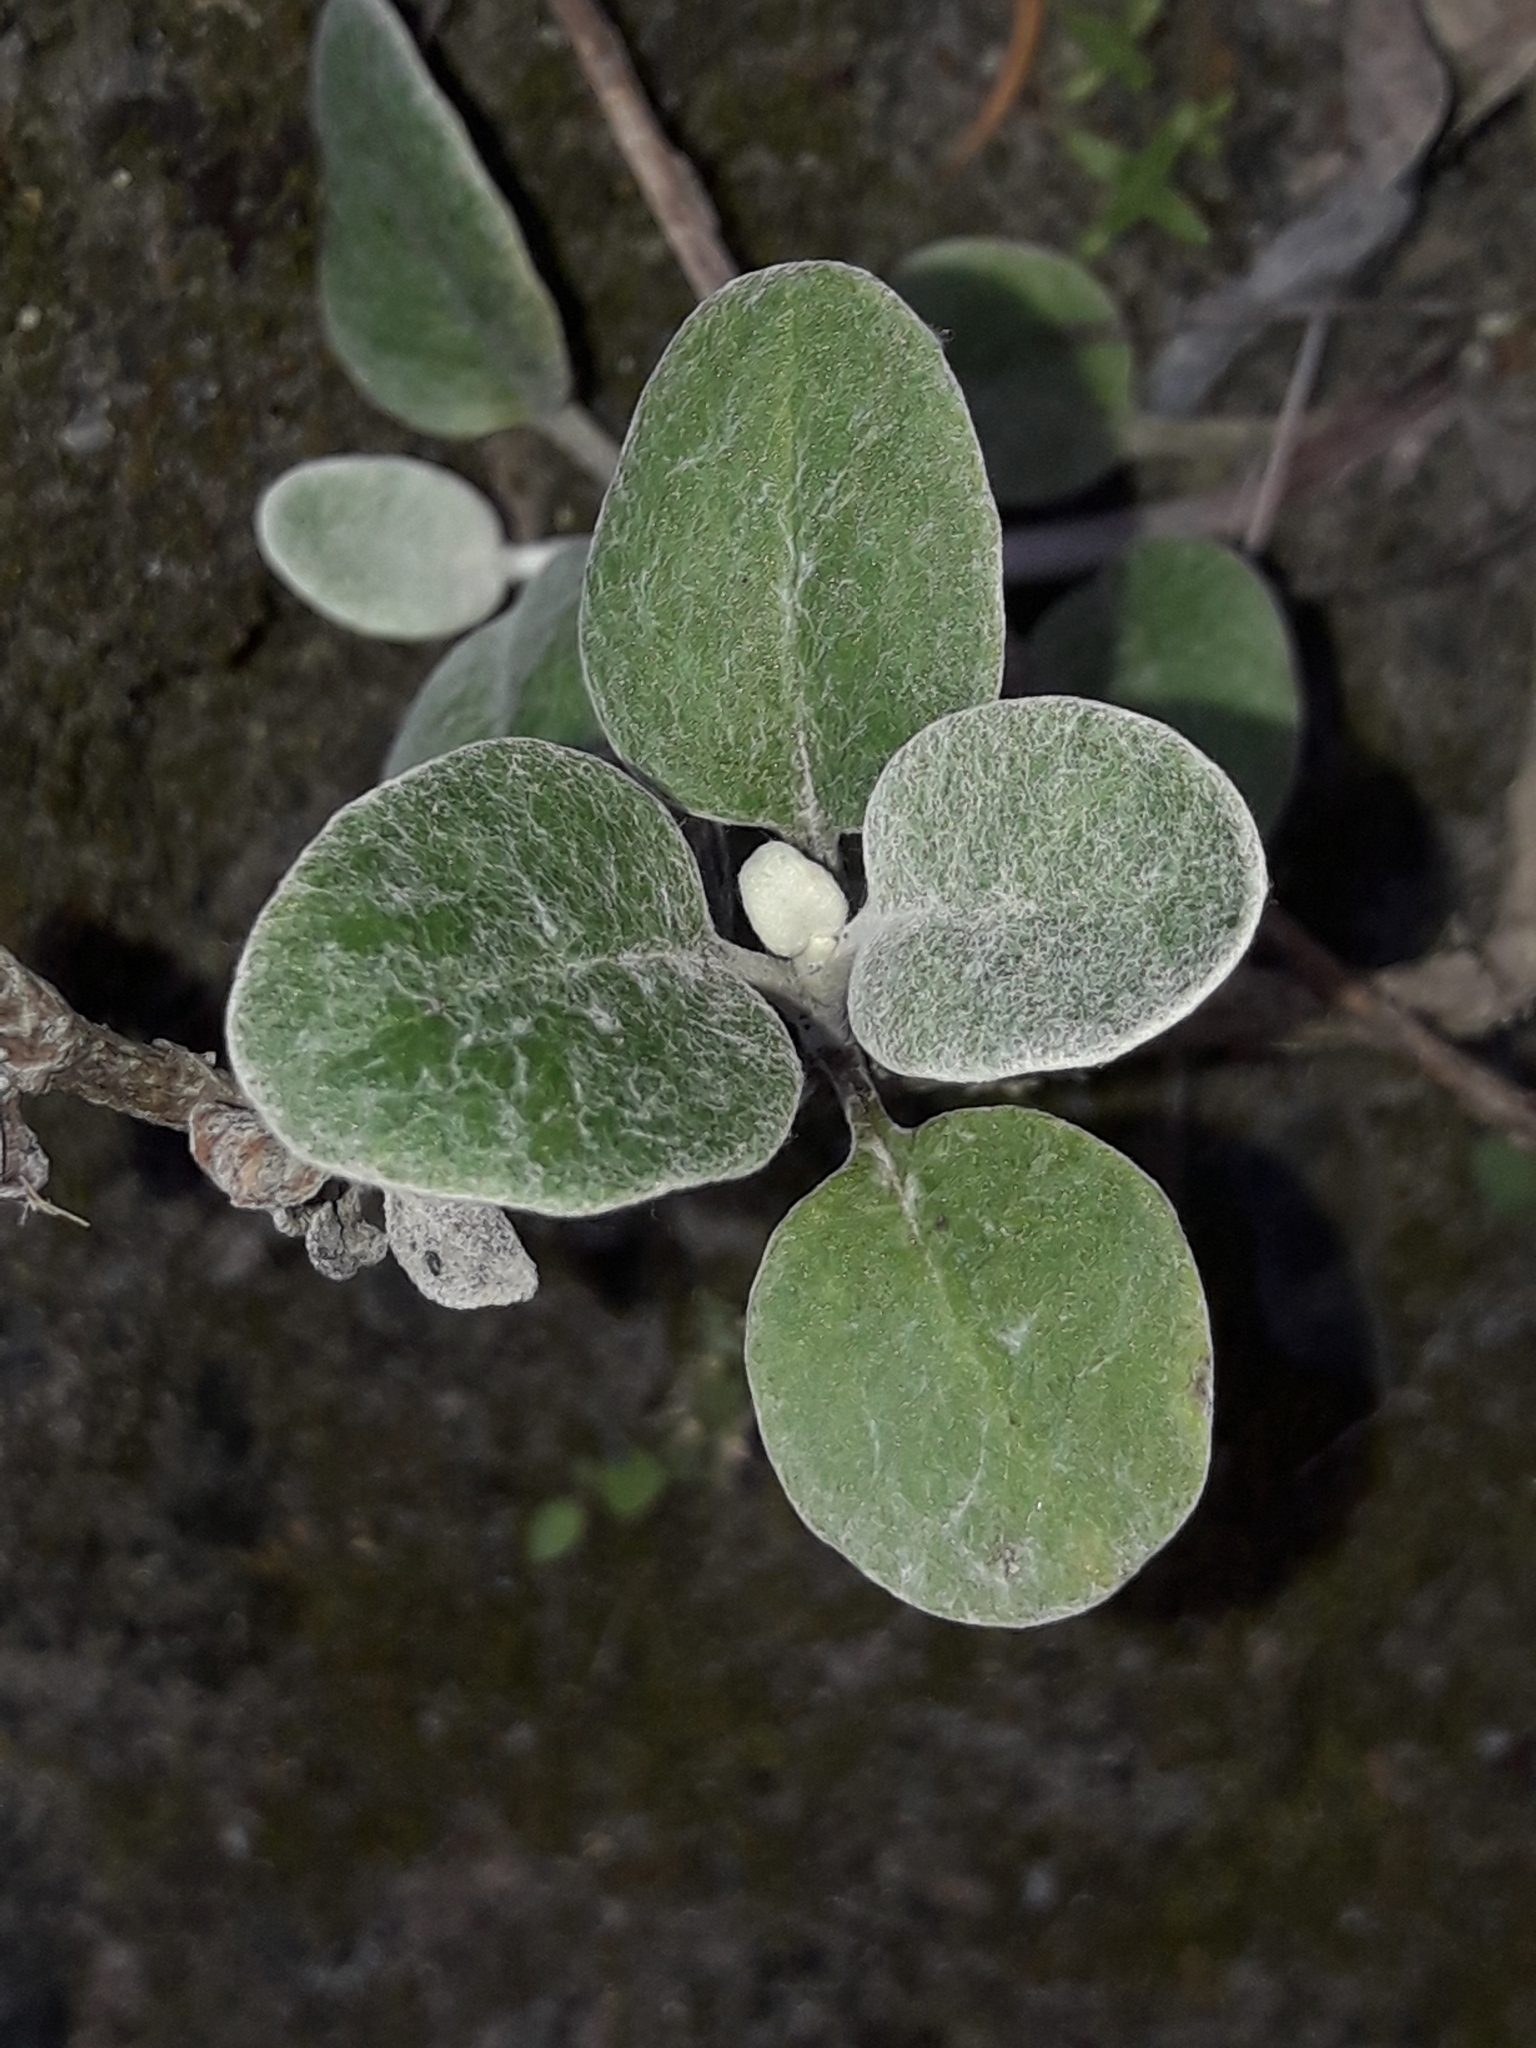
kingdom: Plantae
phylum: Tracheophyta
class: Magnoliopsida
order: Asterales
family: Asteraceae
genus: Brachyglottis
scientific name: Brachyglottis greyi
